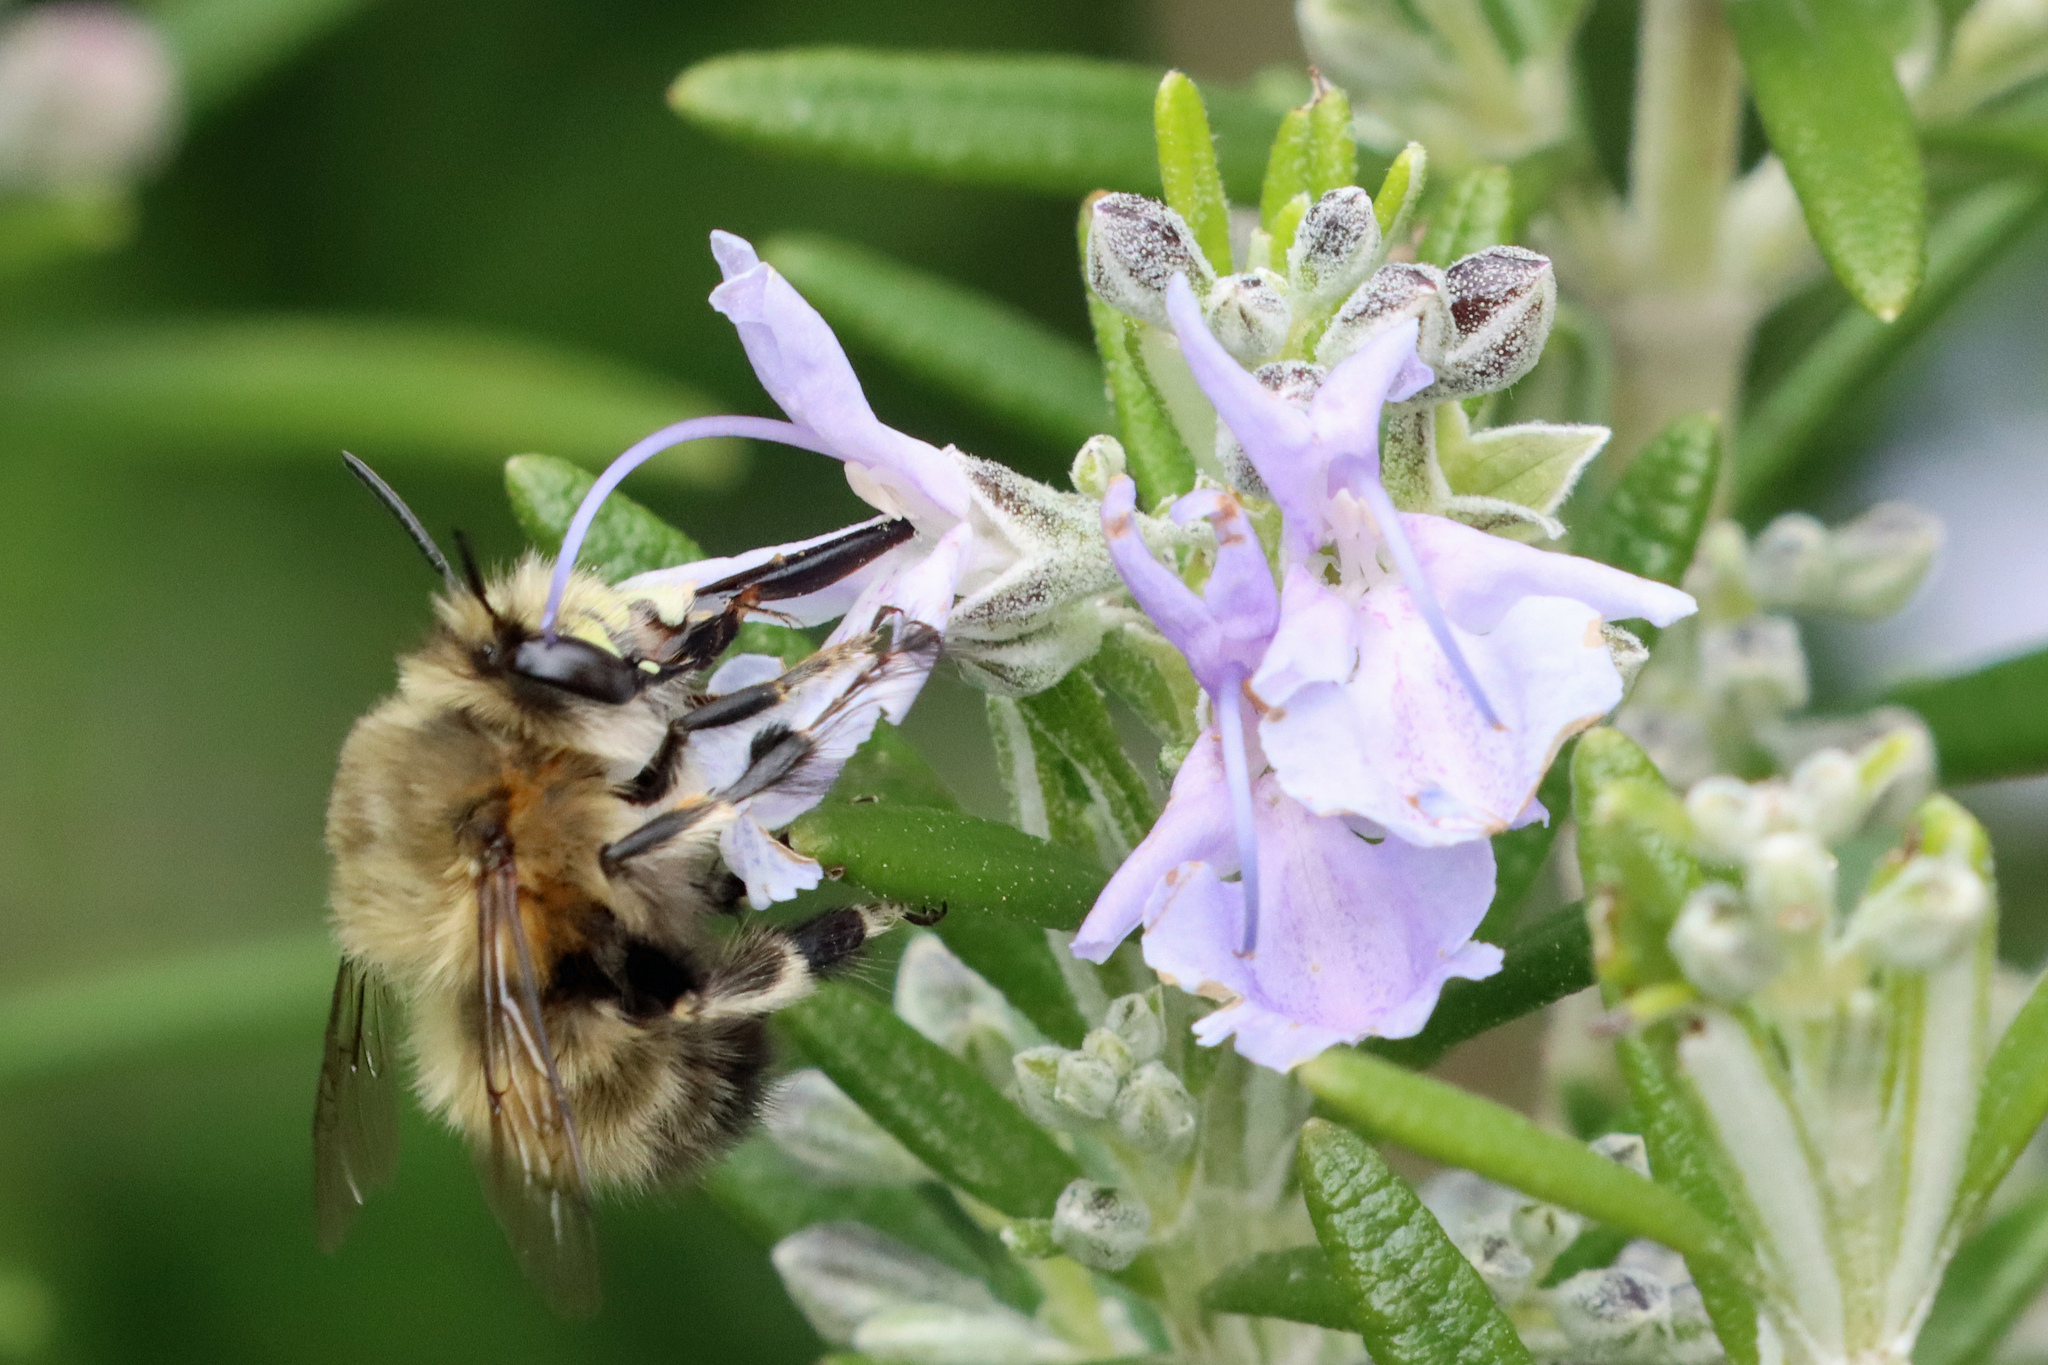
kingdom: Animalia
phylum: Arthropoda
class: Insecta
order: Hymenoptera
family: Apidae
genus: Anthophora
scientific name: Anthophora plumipes
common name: Hairy-footed flower bee
